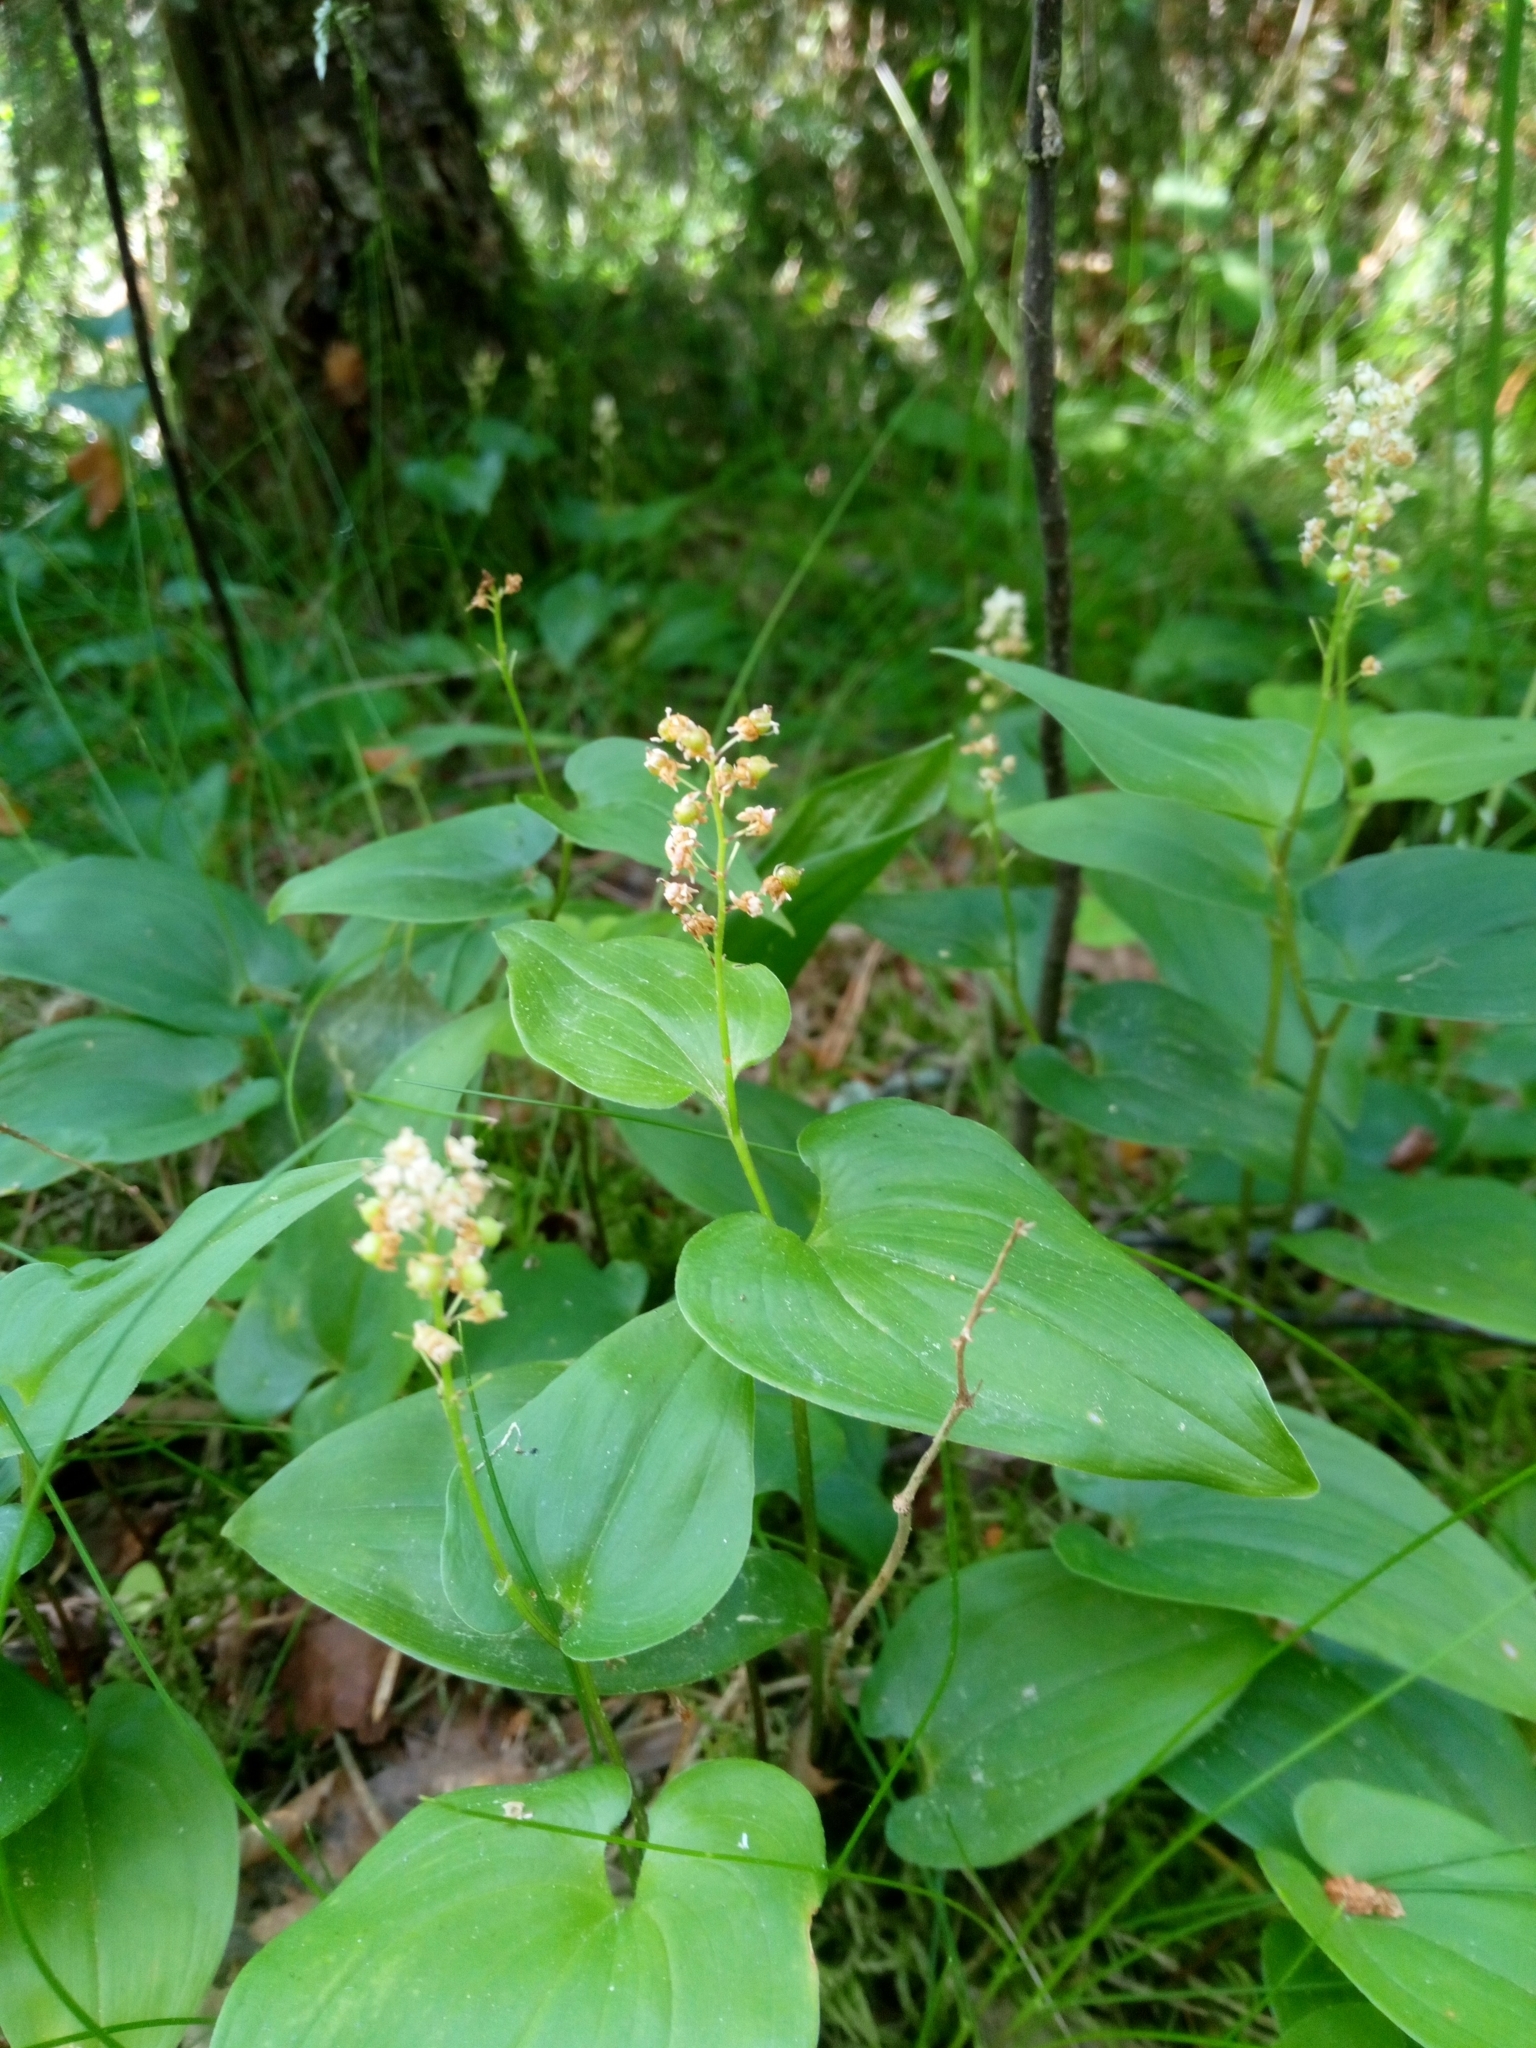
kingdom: Plantae
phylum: Tracheophyta
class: Liliopsida
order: Asparagales
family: Asparagaceae
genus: Maianthemum
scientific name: Maianthemum bifolium
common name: May lily
